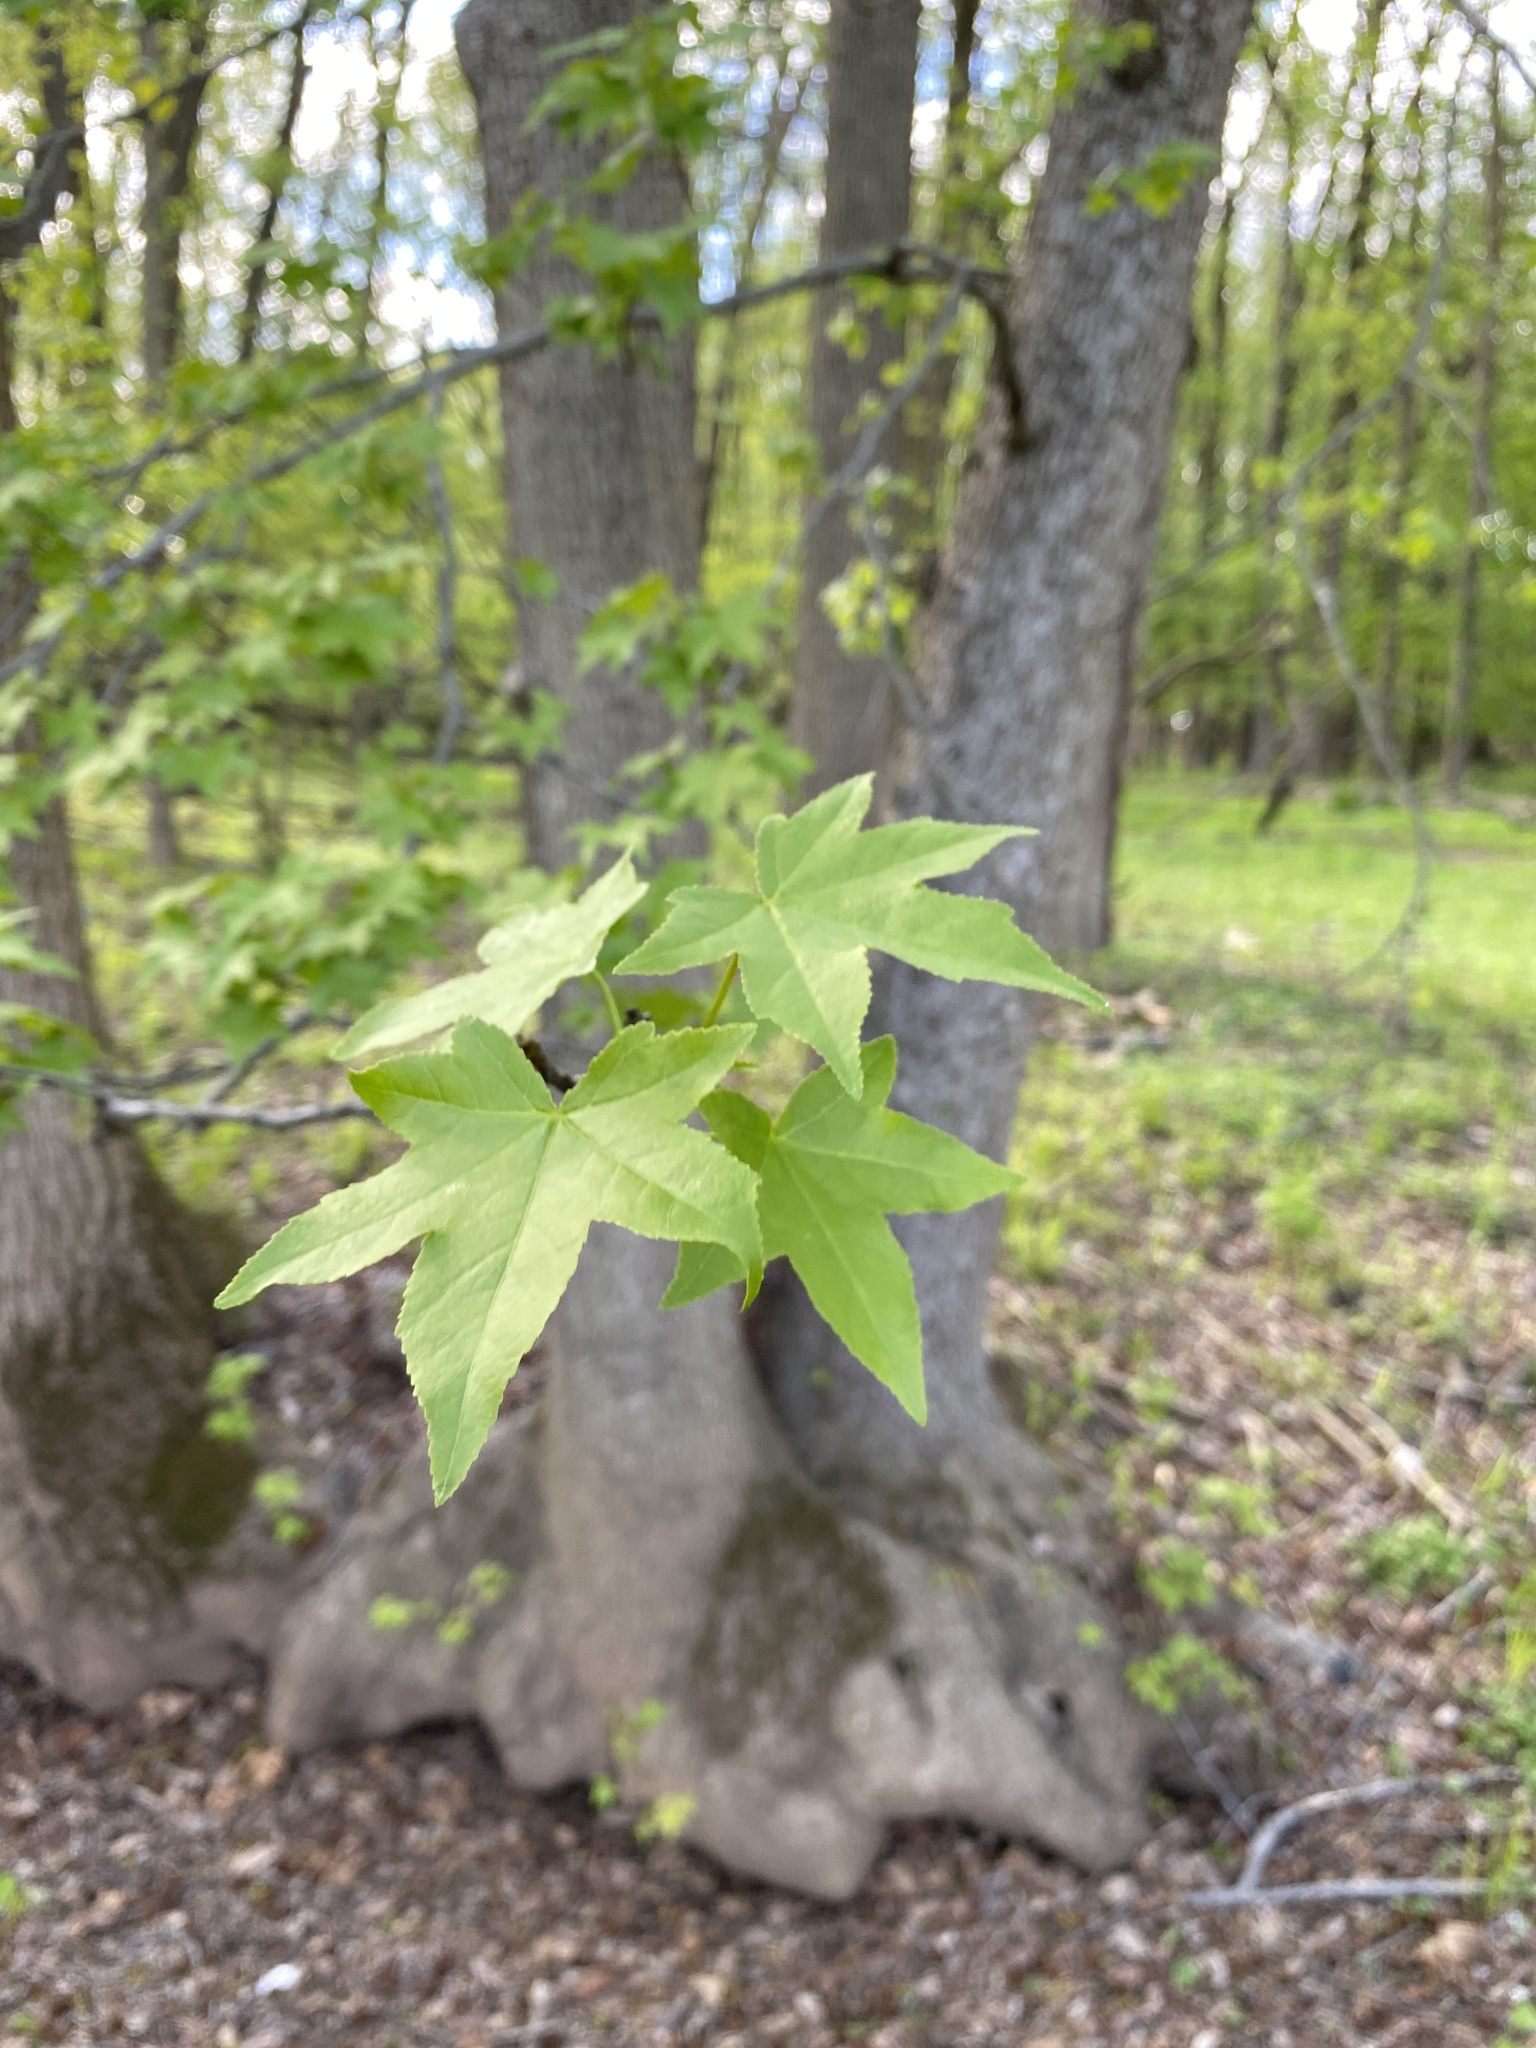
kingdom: Plantae
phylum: Tracheophyta
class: Magnoliopsida
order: Saxifragales
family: Altingiaceae
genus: Liquidambar
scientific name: Liquidambar styraciflua
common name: Sweet gum
